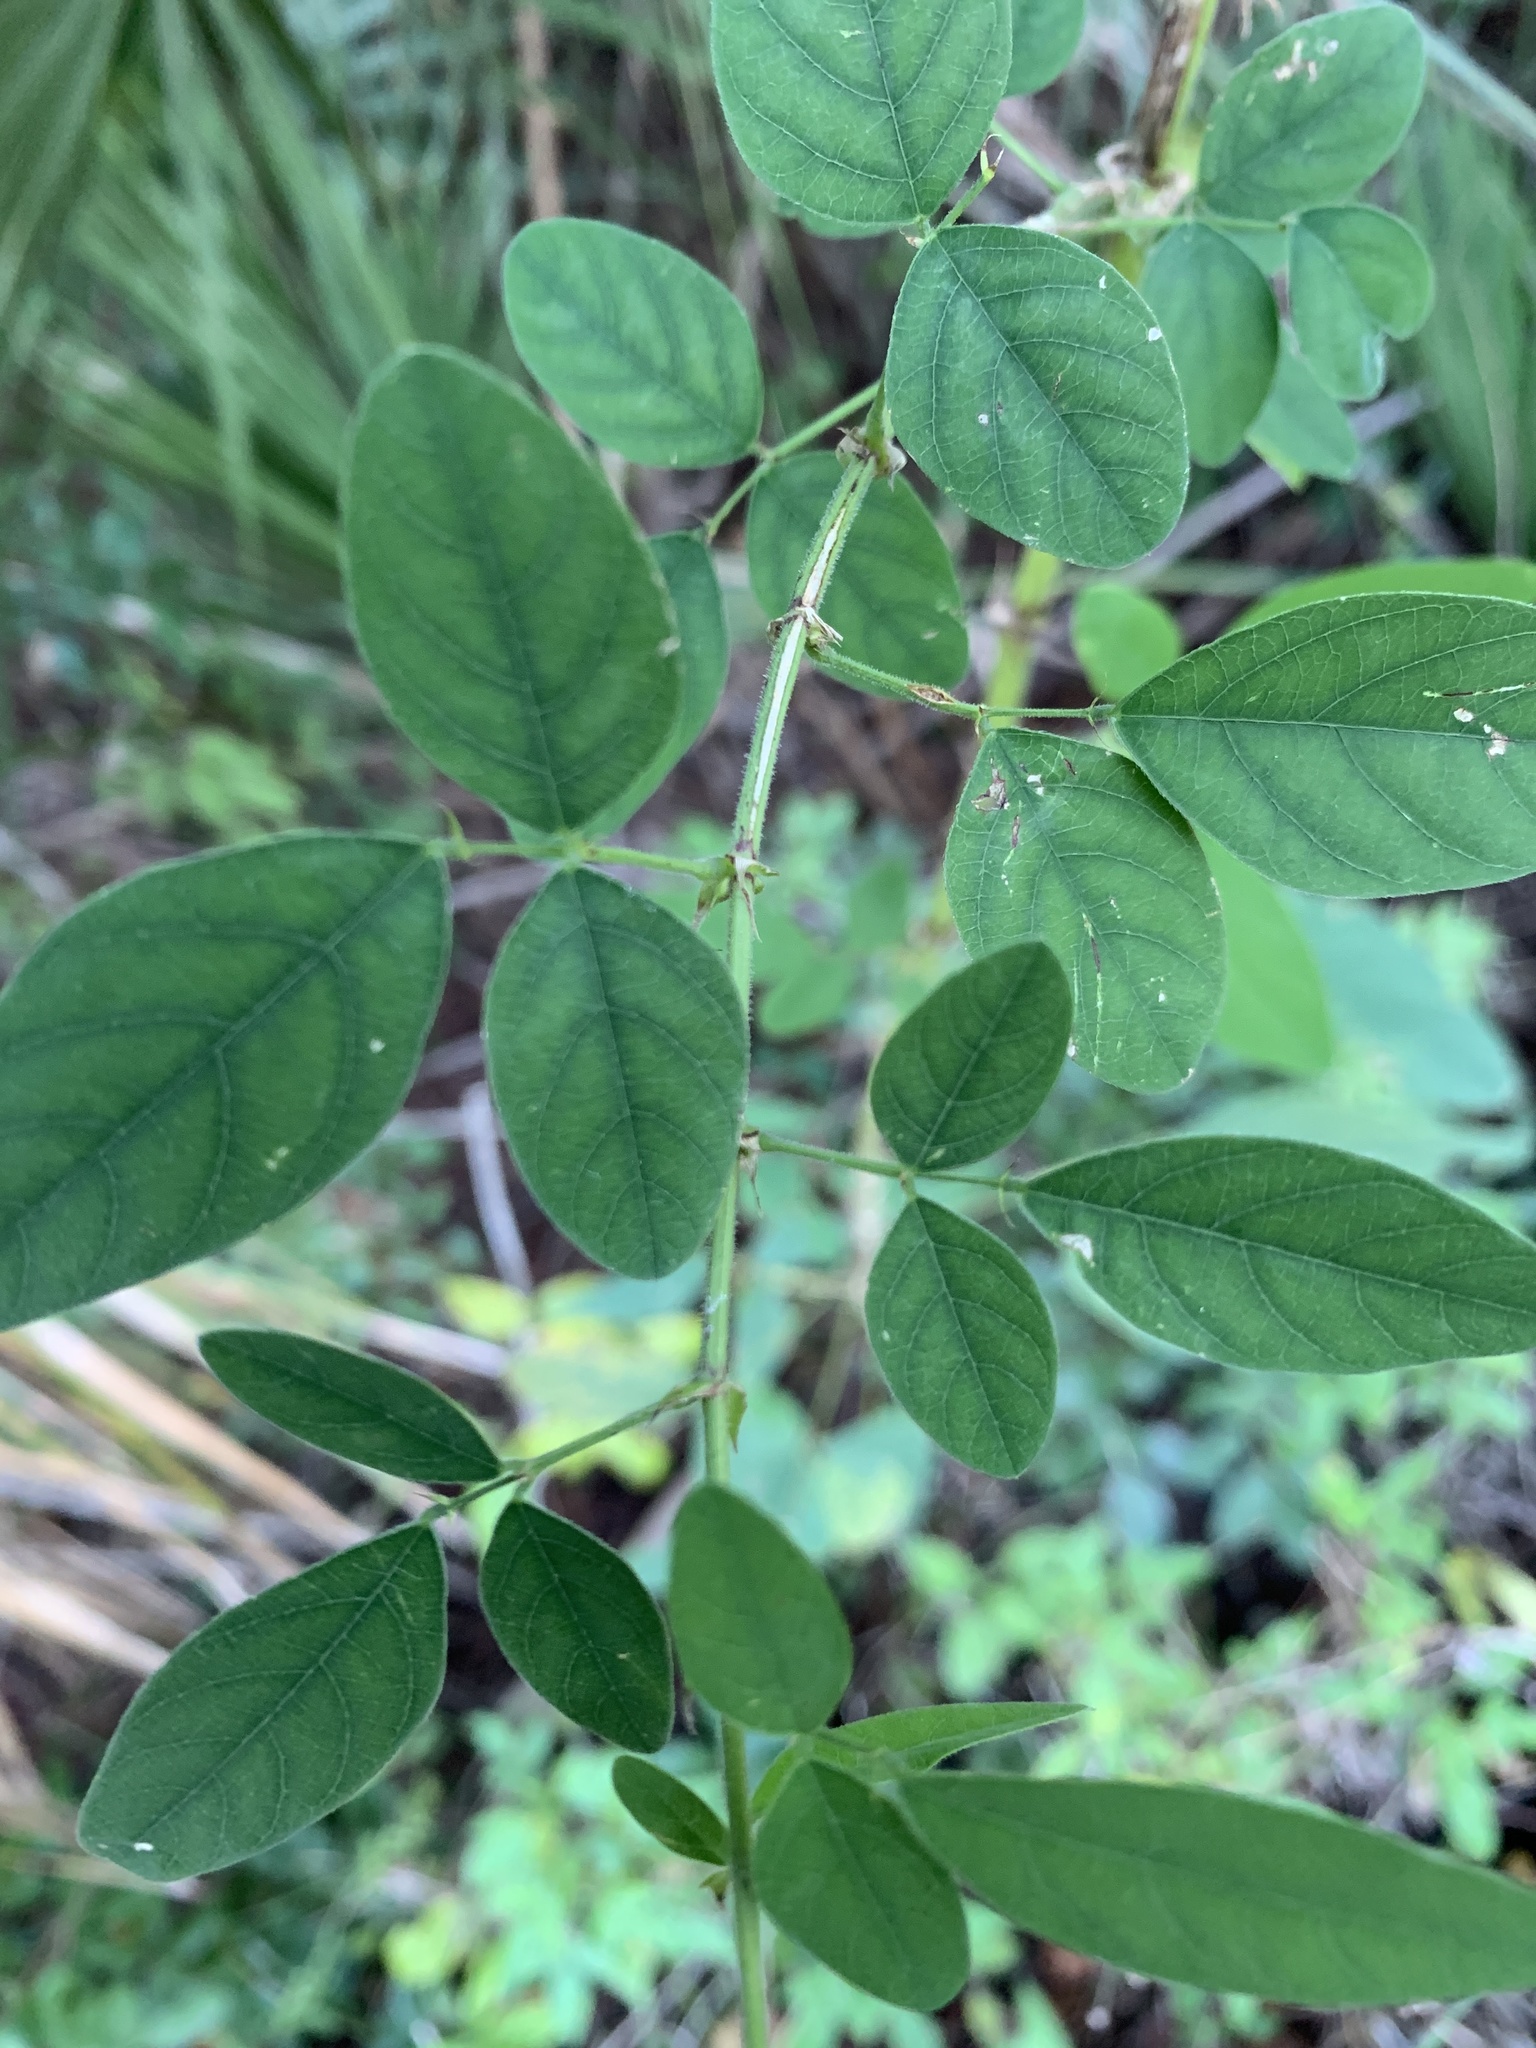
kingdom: Plantae
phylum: Tracheophyta
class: Magnoliopsida
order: Fabales
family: Fabaceae
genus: Desmodium
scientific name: Desmodium tortuosum
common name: Dixie ticktrefoil
